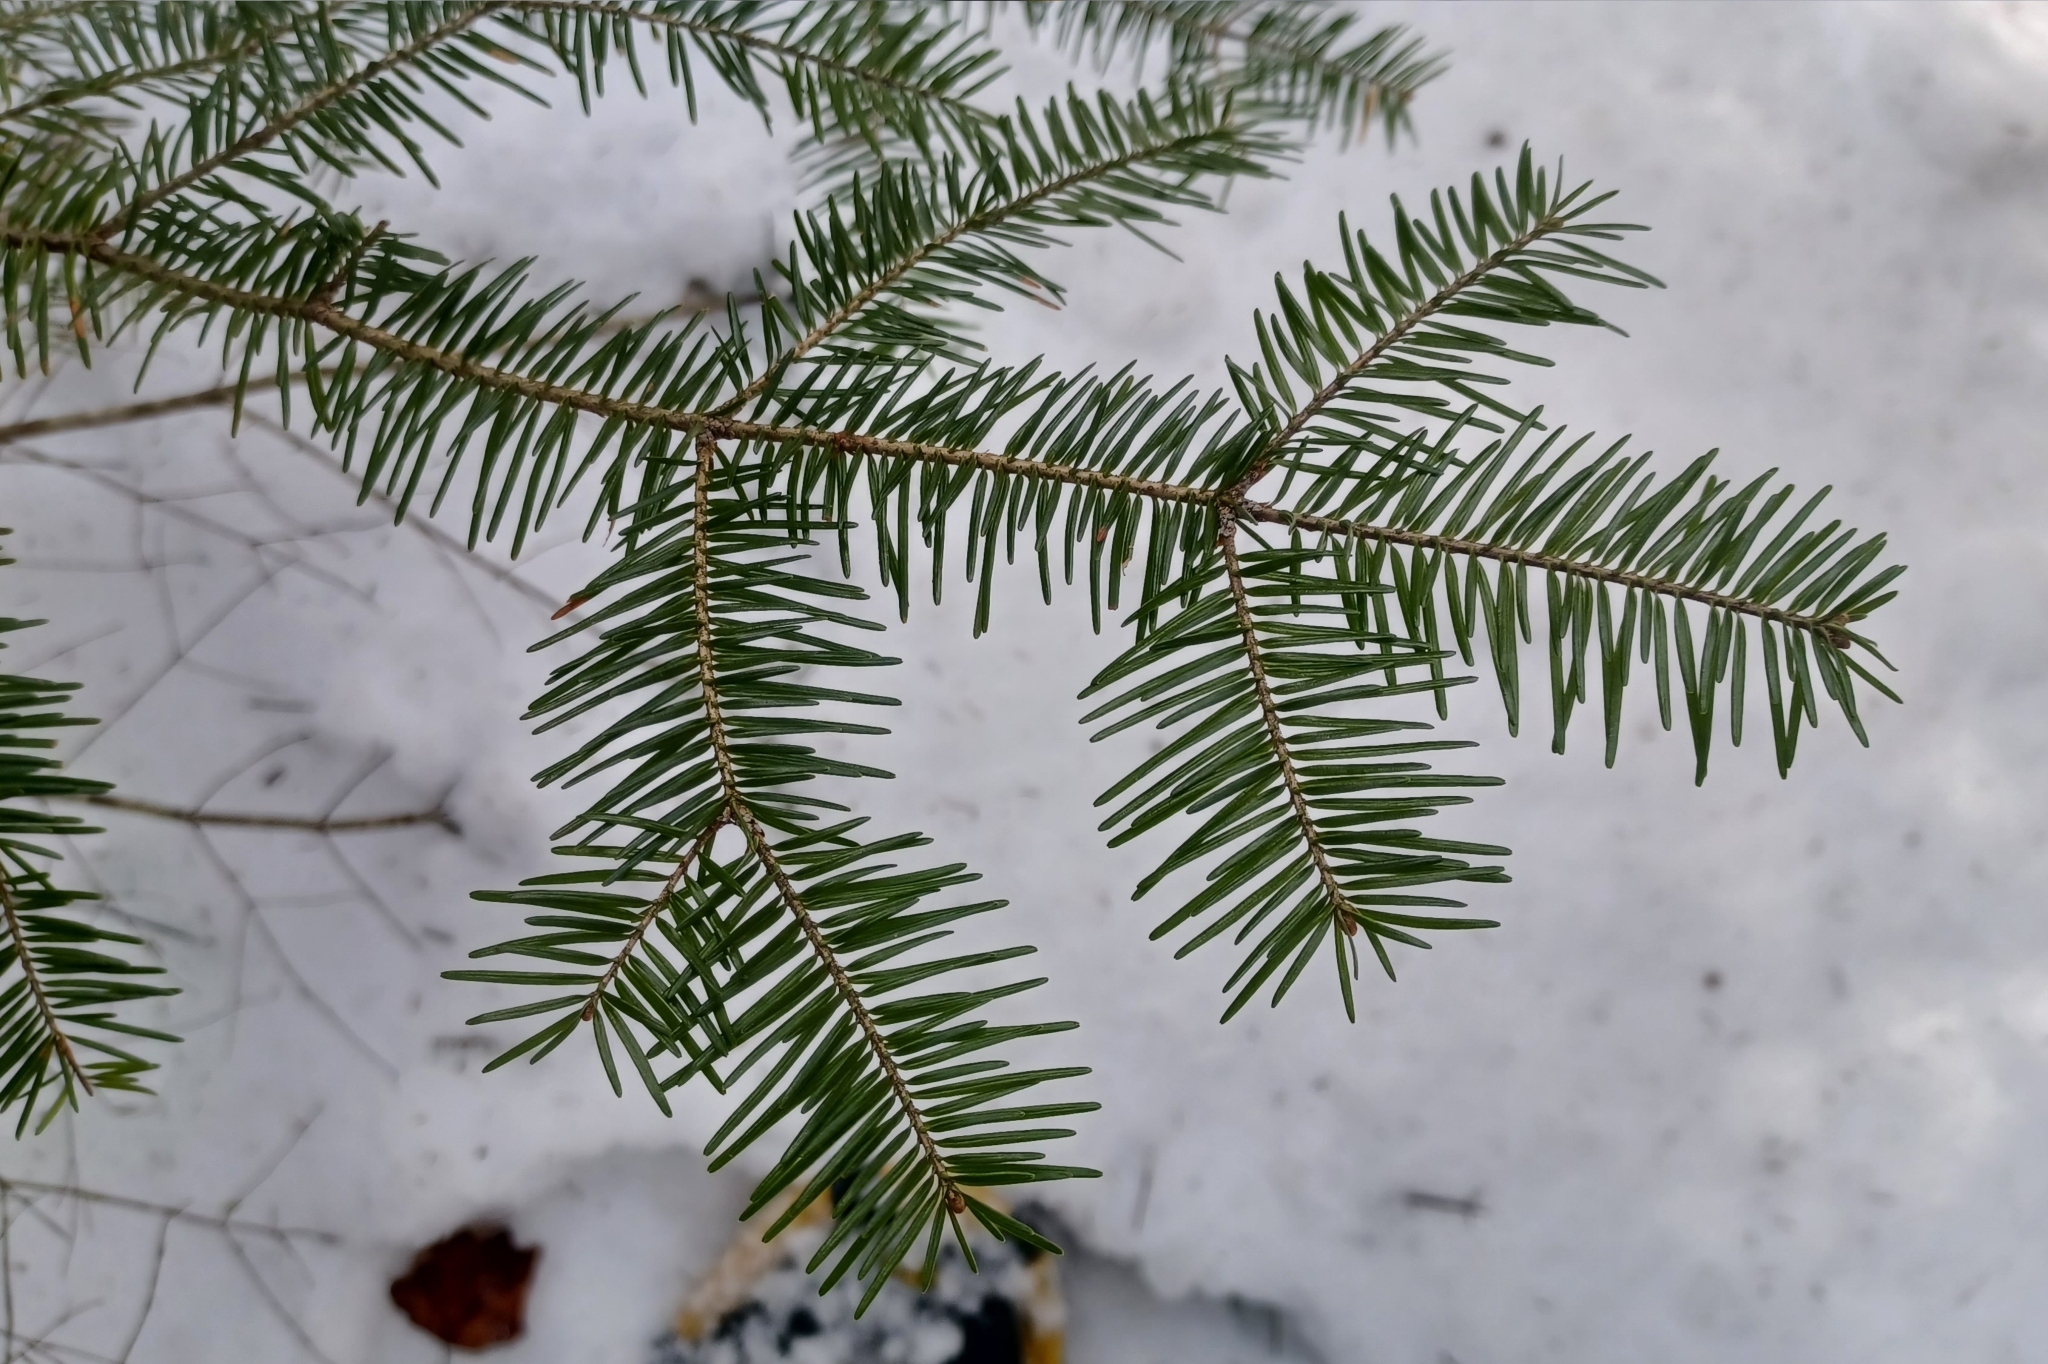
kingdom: Plantae
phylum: Tracheophyta
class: Pinopsida
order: Pinales
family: Pinaceae
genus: Abies
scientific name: Abies balsamea
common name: Balsam fir
